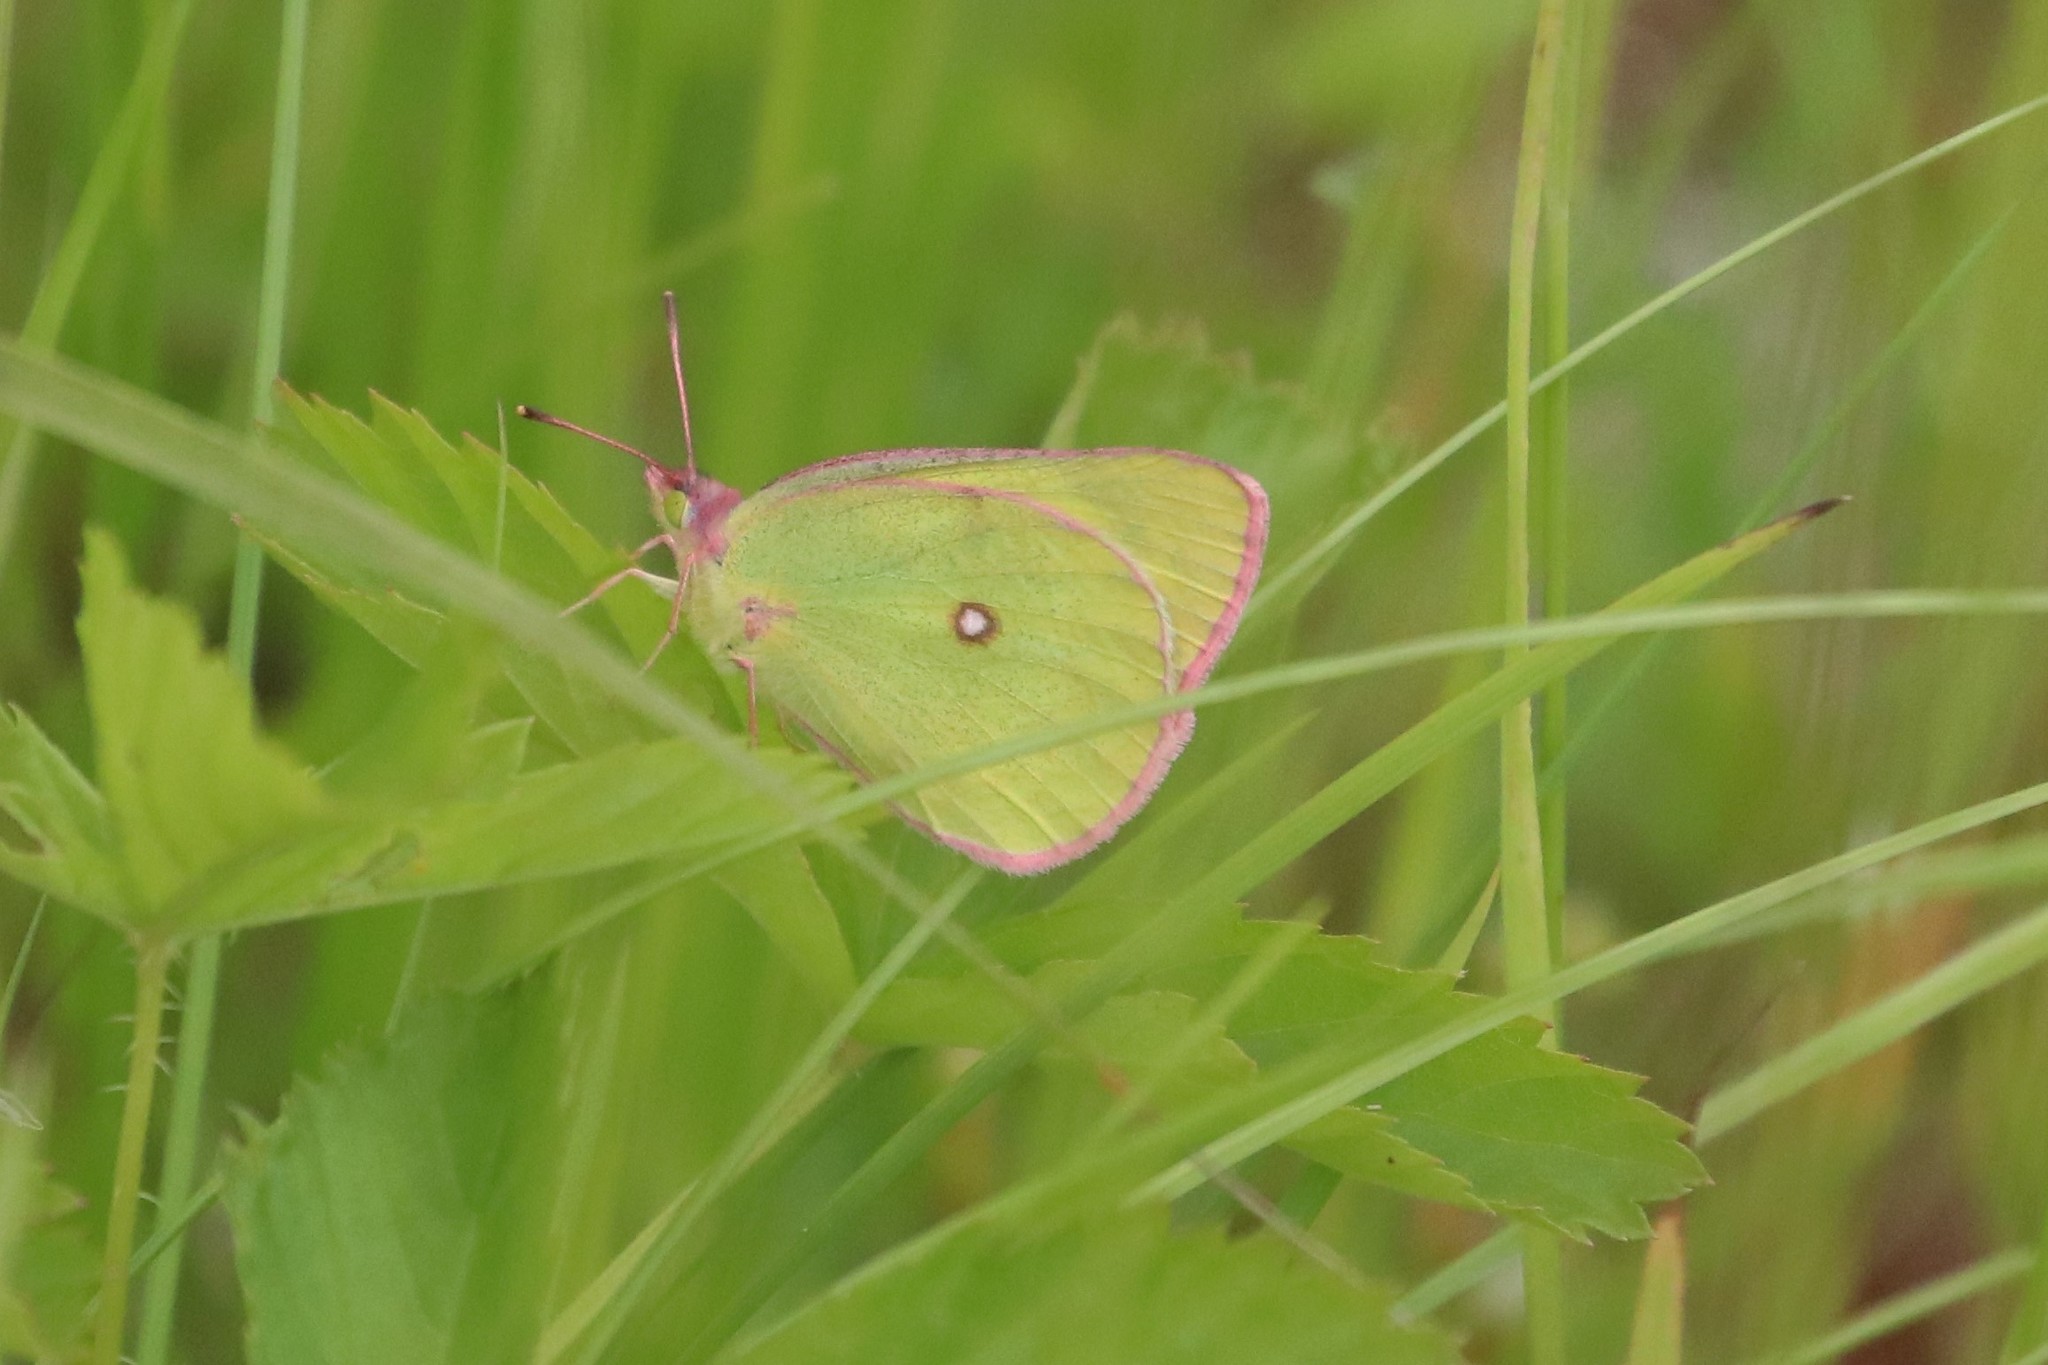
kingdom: Animalia
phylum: Arthropoda
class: Insecta
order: Lepidoptera
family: Pieridae
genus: Colias
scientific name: Colias interior
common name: Pink-edged sulphur
